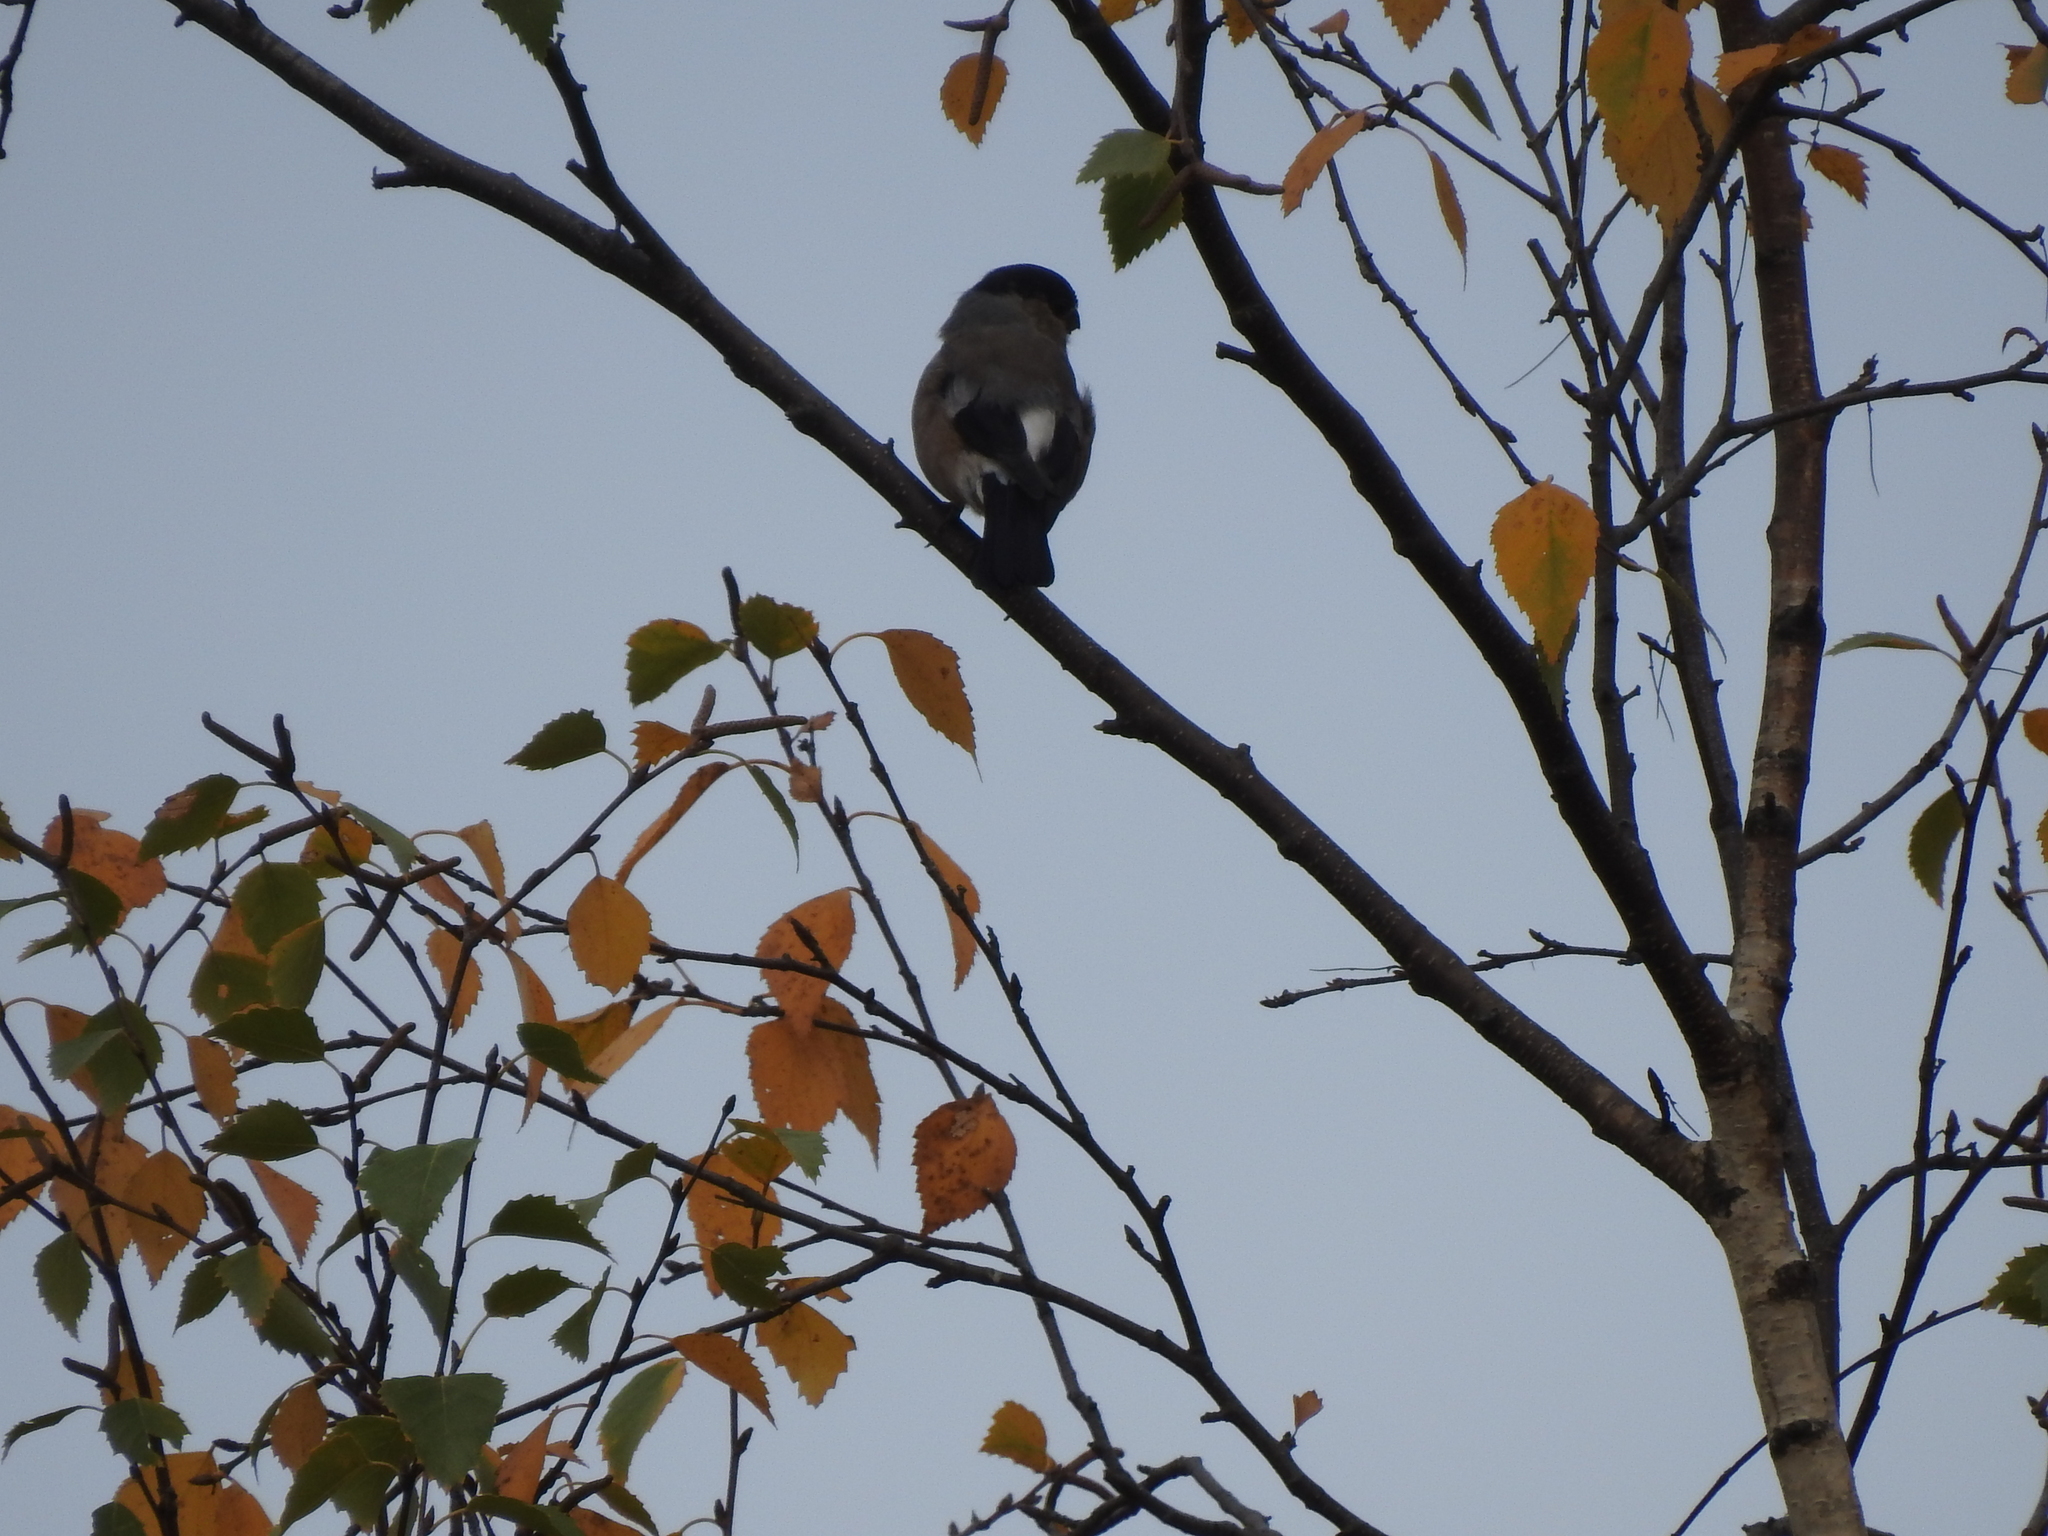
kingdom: Animalia
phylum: Chordata
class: Aves
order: Passeriformes
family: Fringillidae
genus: Pyrrhula
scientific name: Pyrrhula pyrrhula
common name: Eurasian bullfinch
